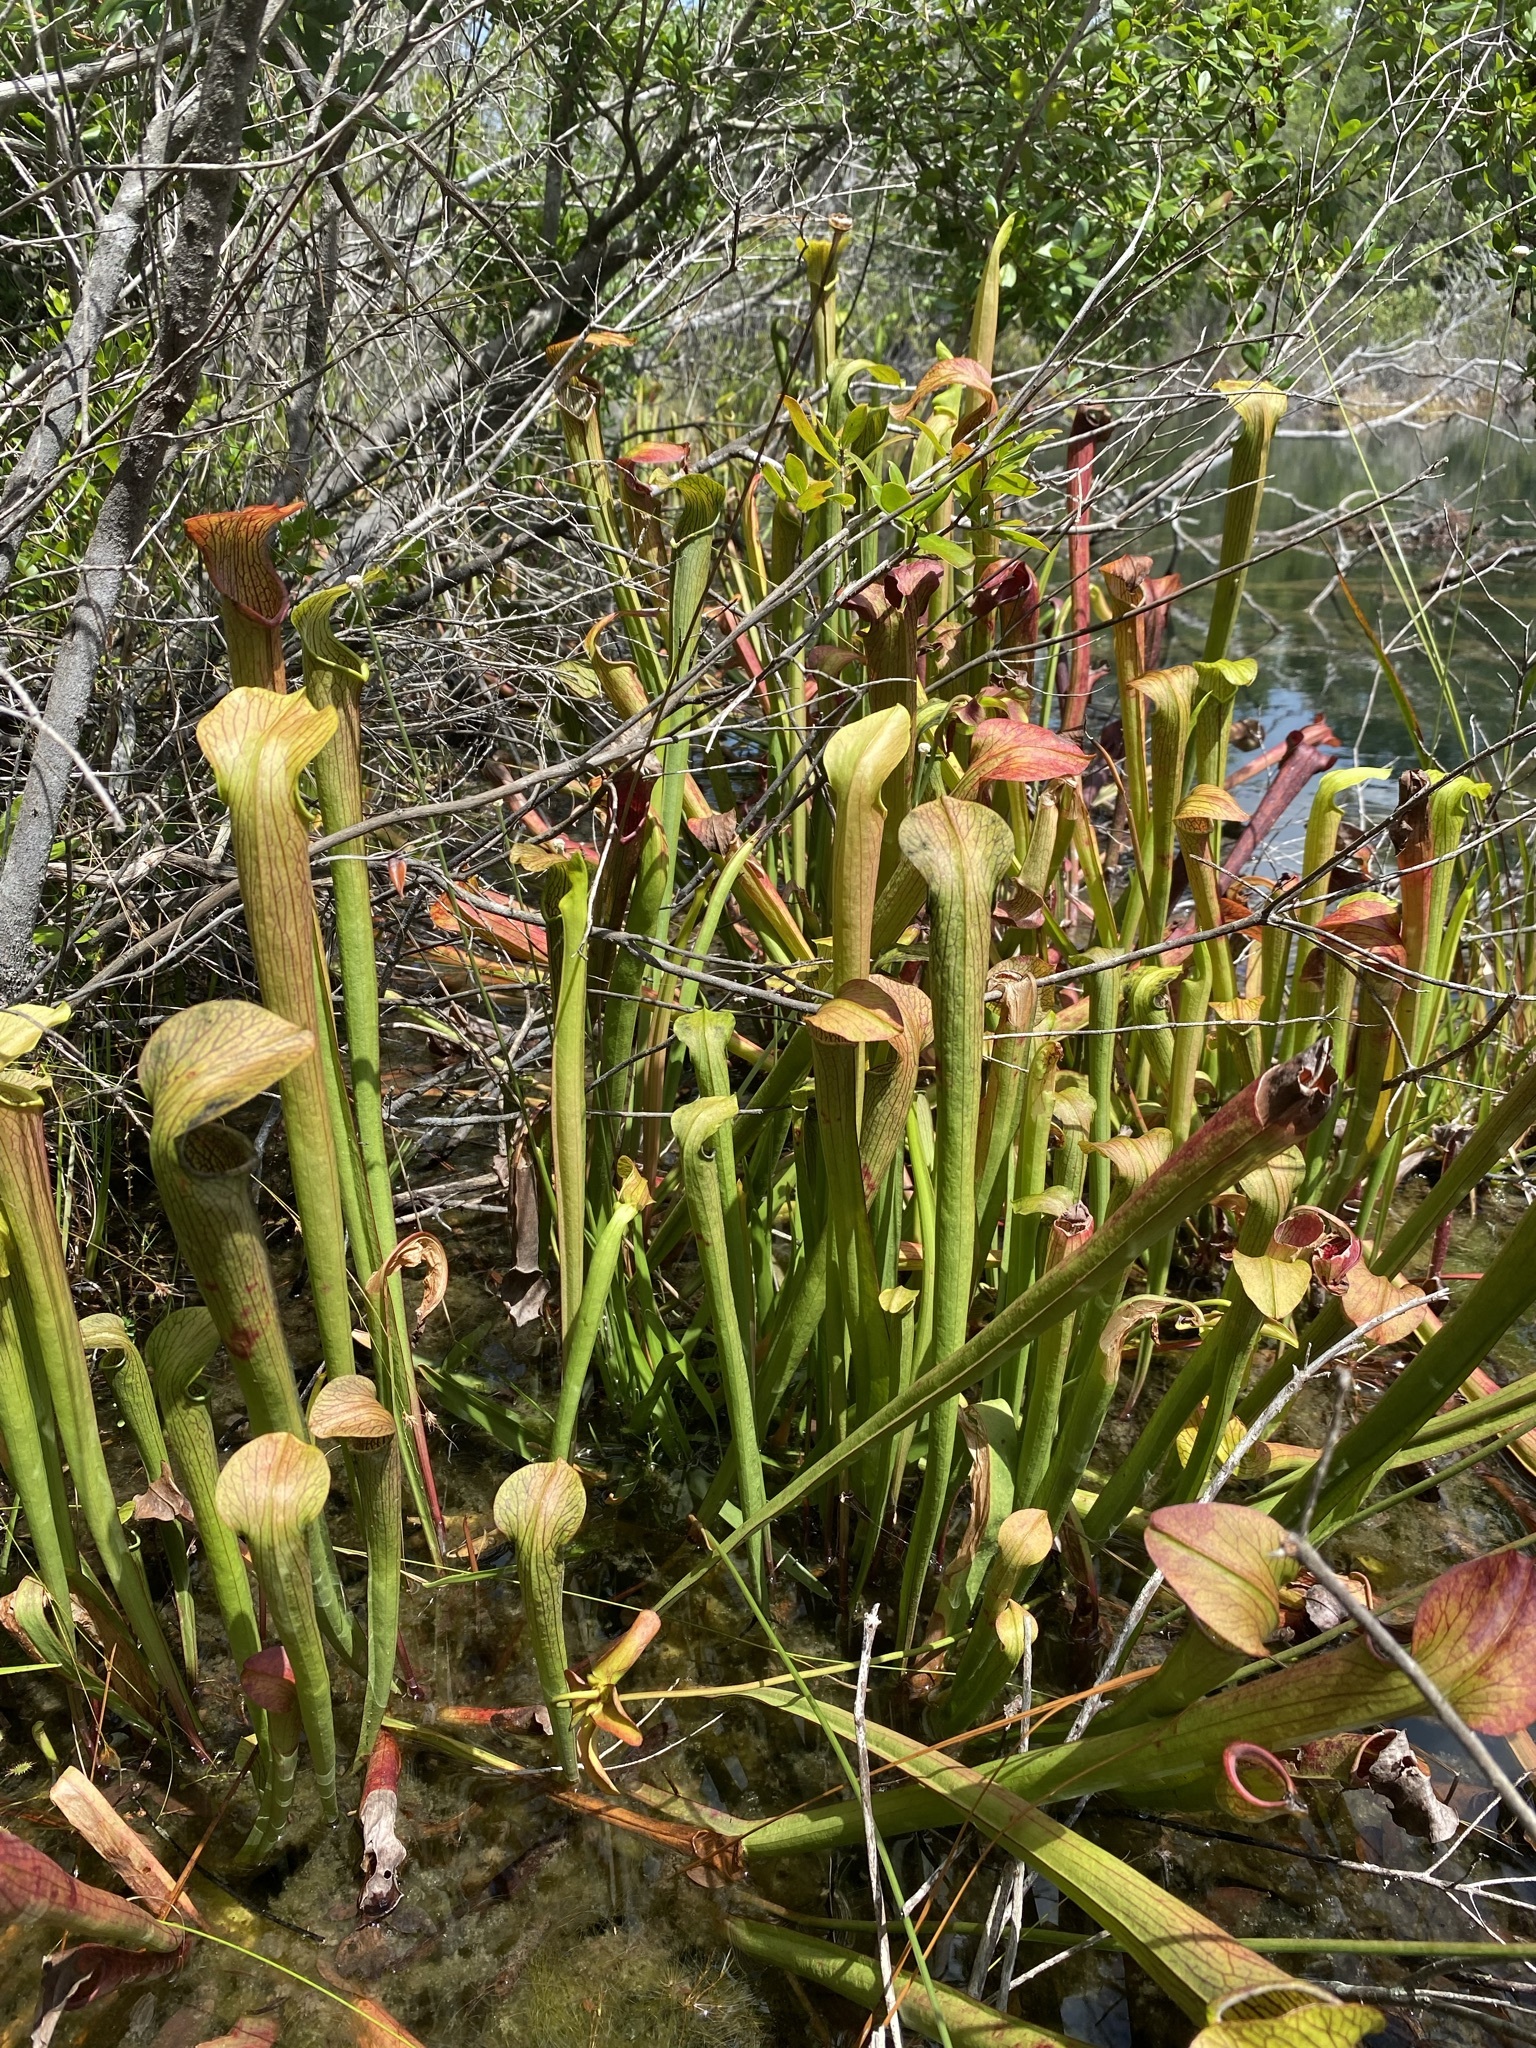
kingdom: Plantae
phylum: Tracheophyta
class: Magnoliopsida
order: Ericales
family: Sarraceniaceae
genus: Sarracenia
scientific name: Sarracenia rubra
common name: Sweet pitcherplant
